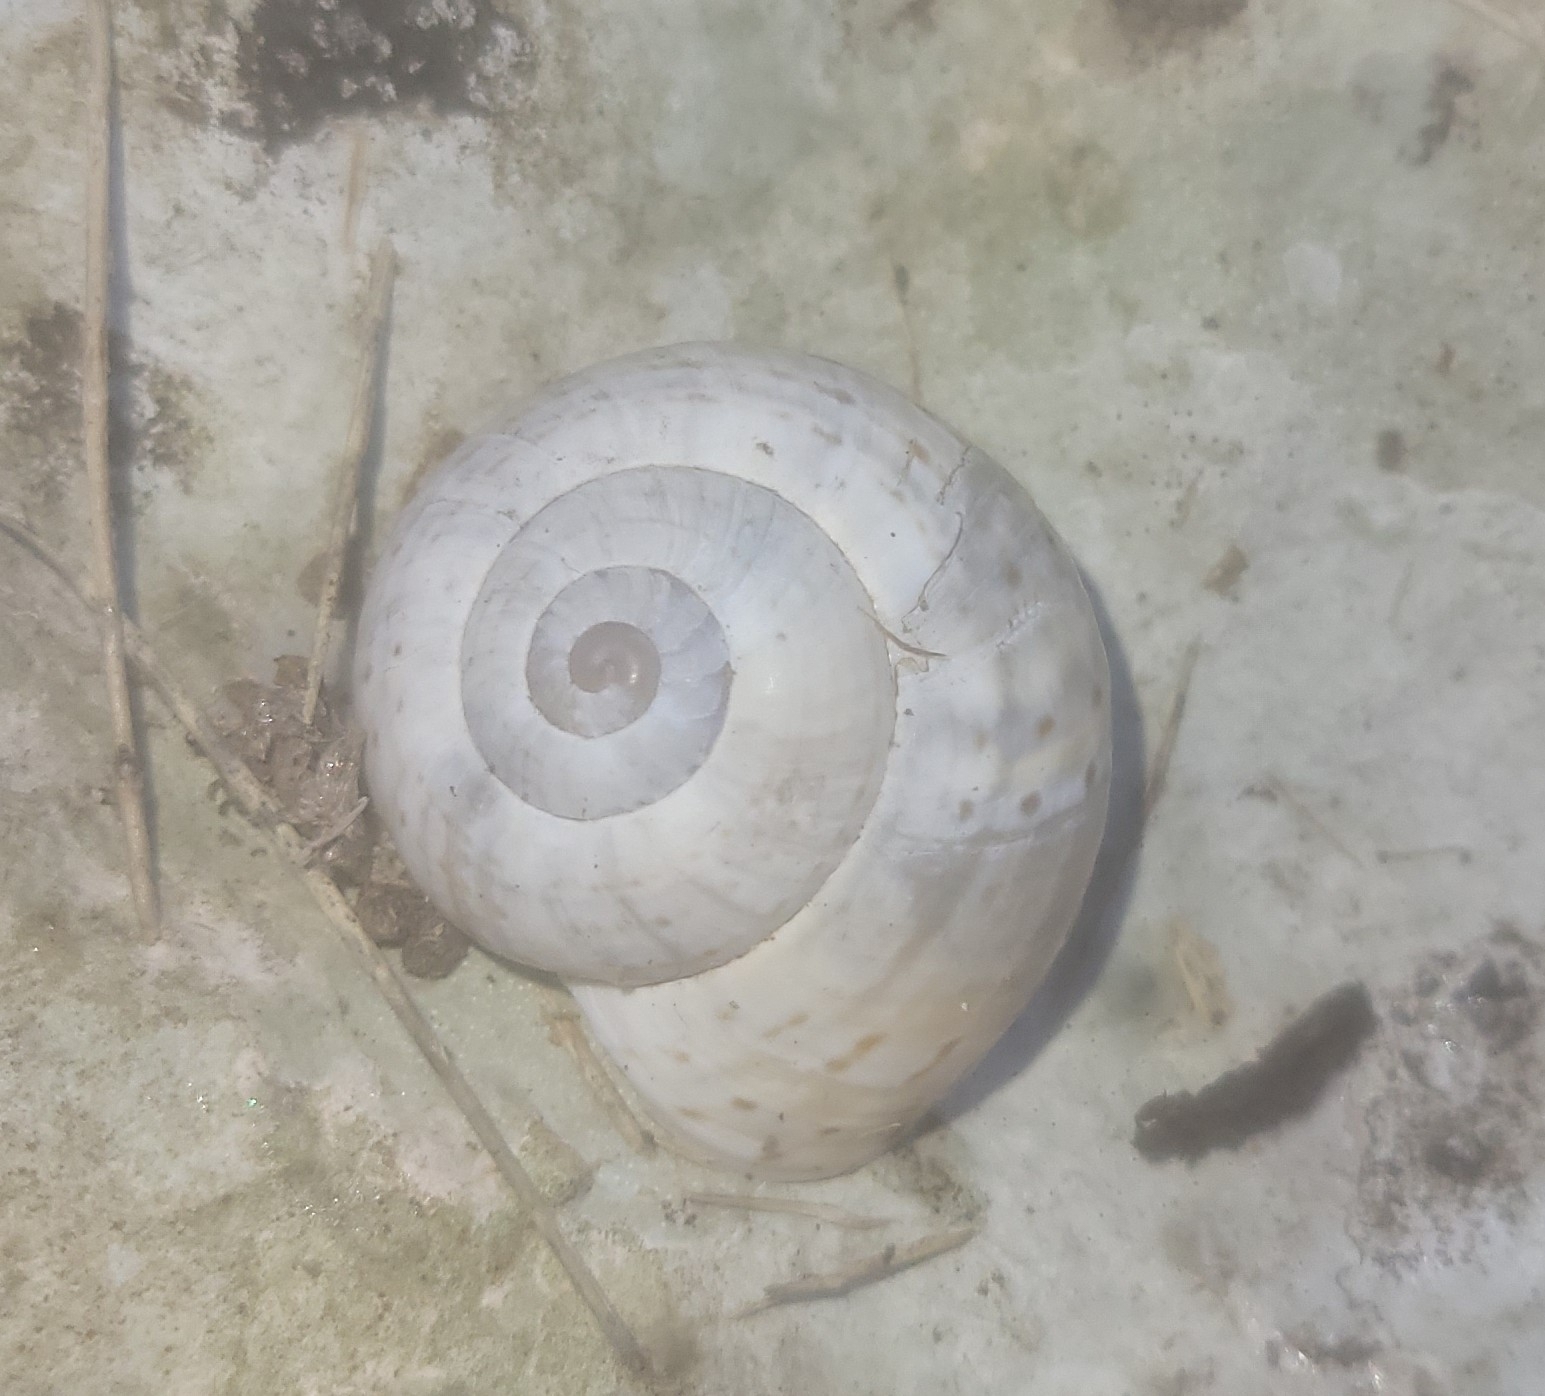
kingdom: Animalia
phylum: Mollusca
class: Gastropoda
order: Stylommatophora
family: Helicidae
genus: Pseudotachea
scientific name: Pseudotachea splendida
